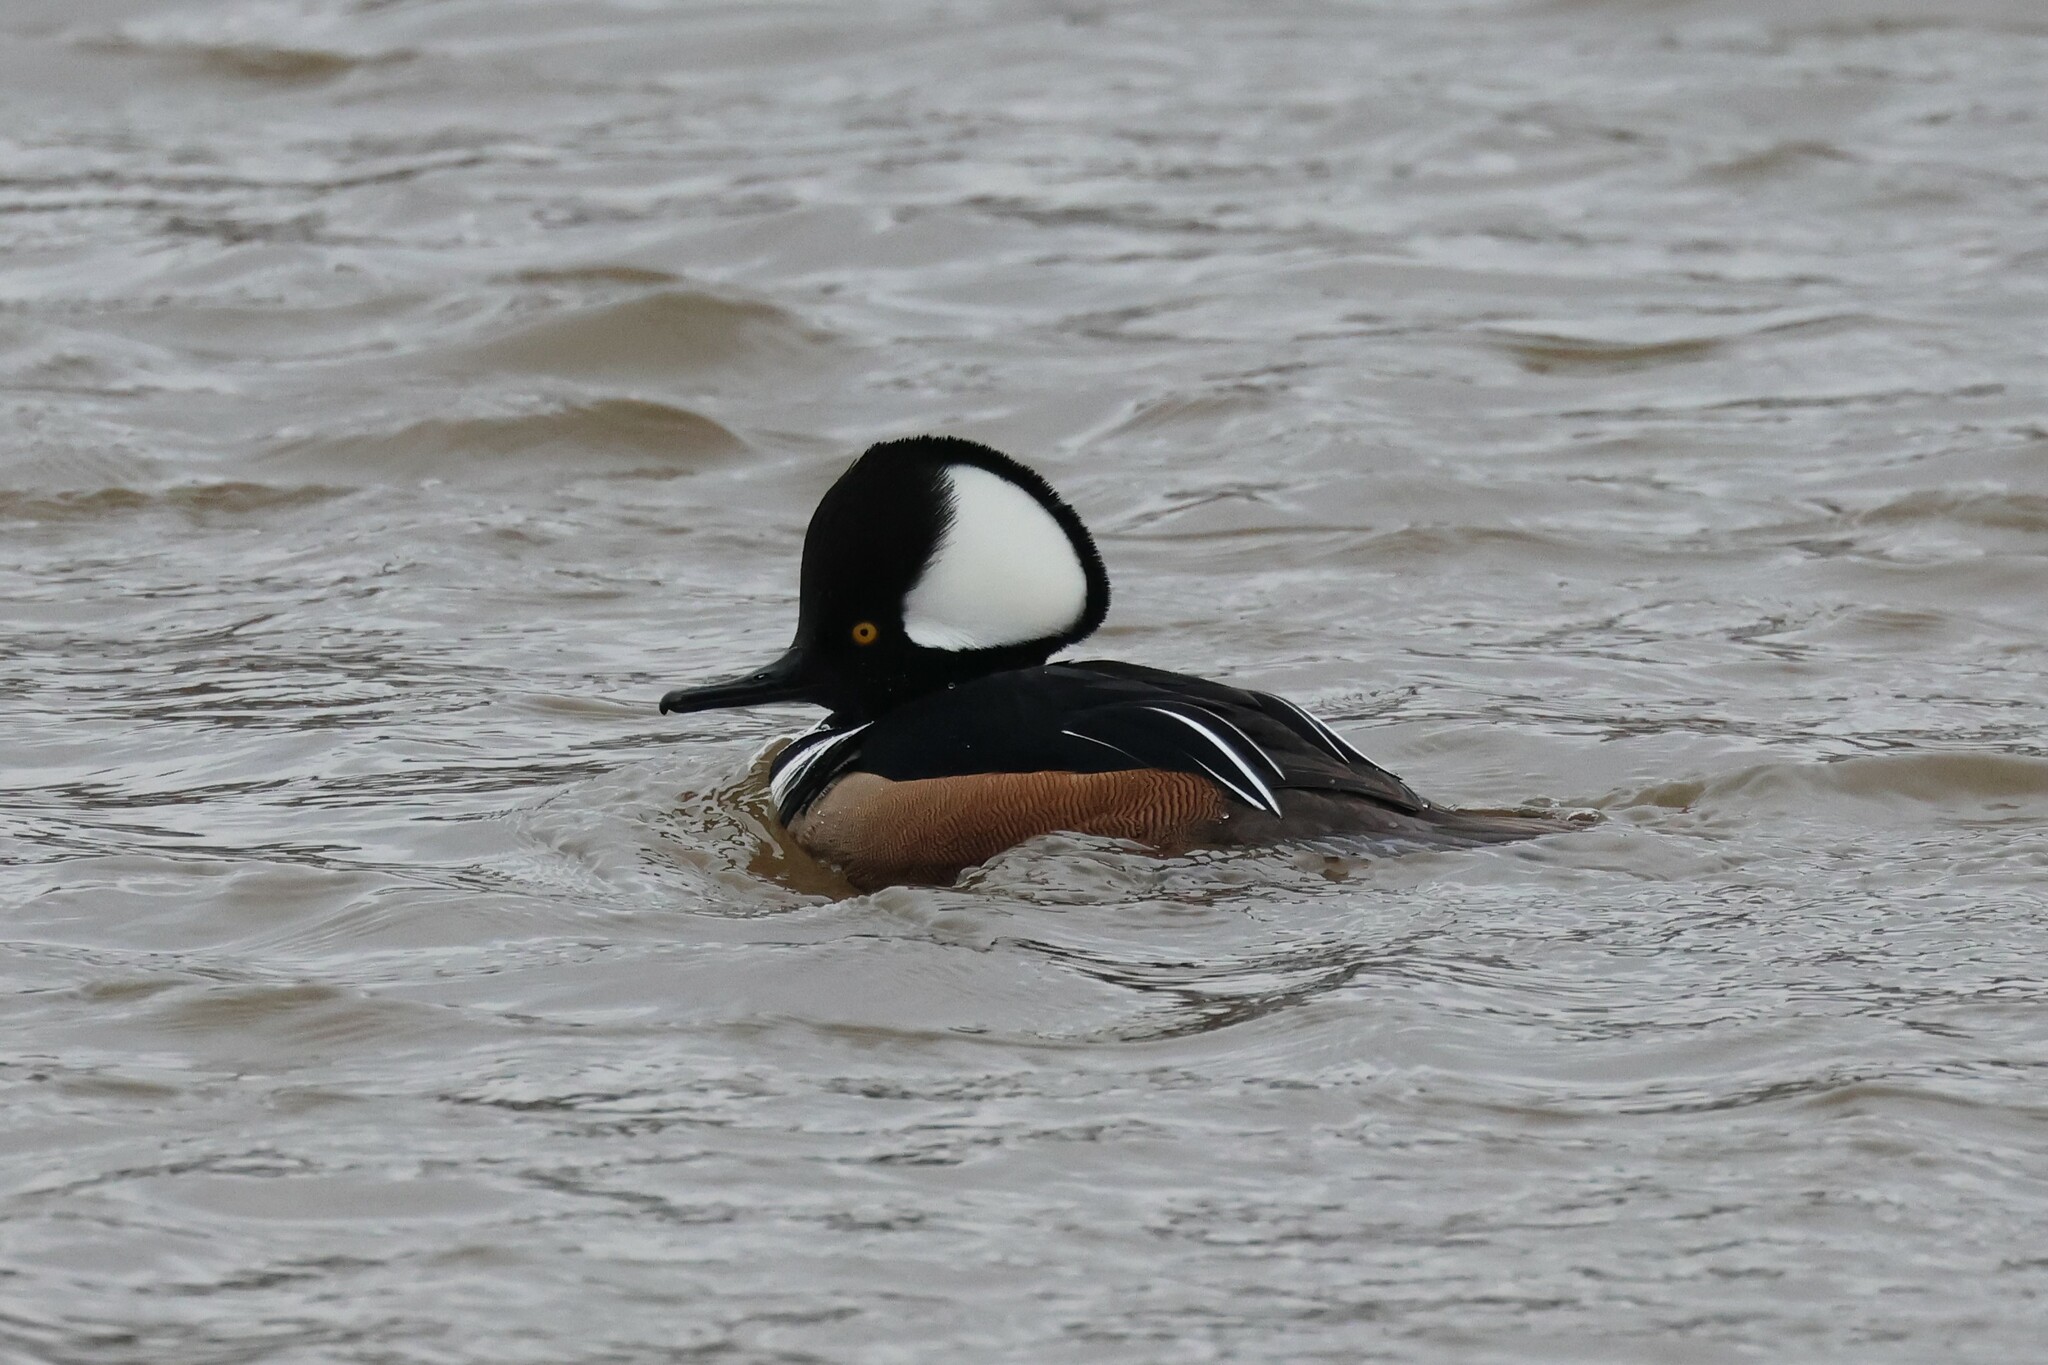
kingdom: Animalia
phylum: Chordata
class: Aves
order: Anseriformes
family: Anatidae
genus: Lophodytes
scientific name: Lophodytes cucullatus
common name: Hooded merganser
